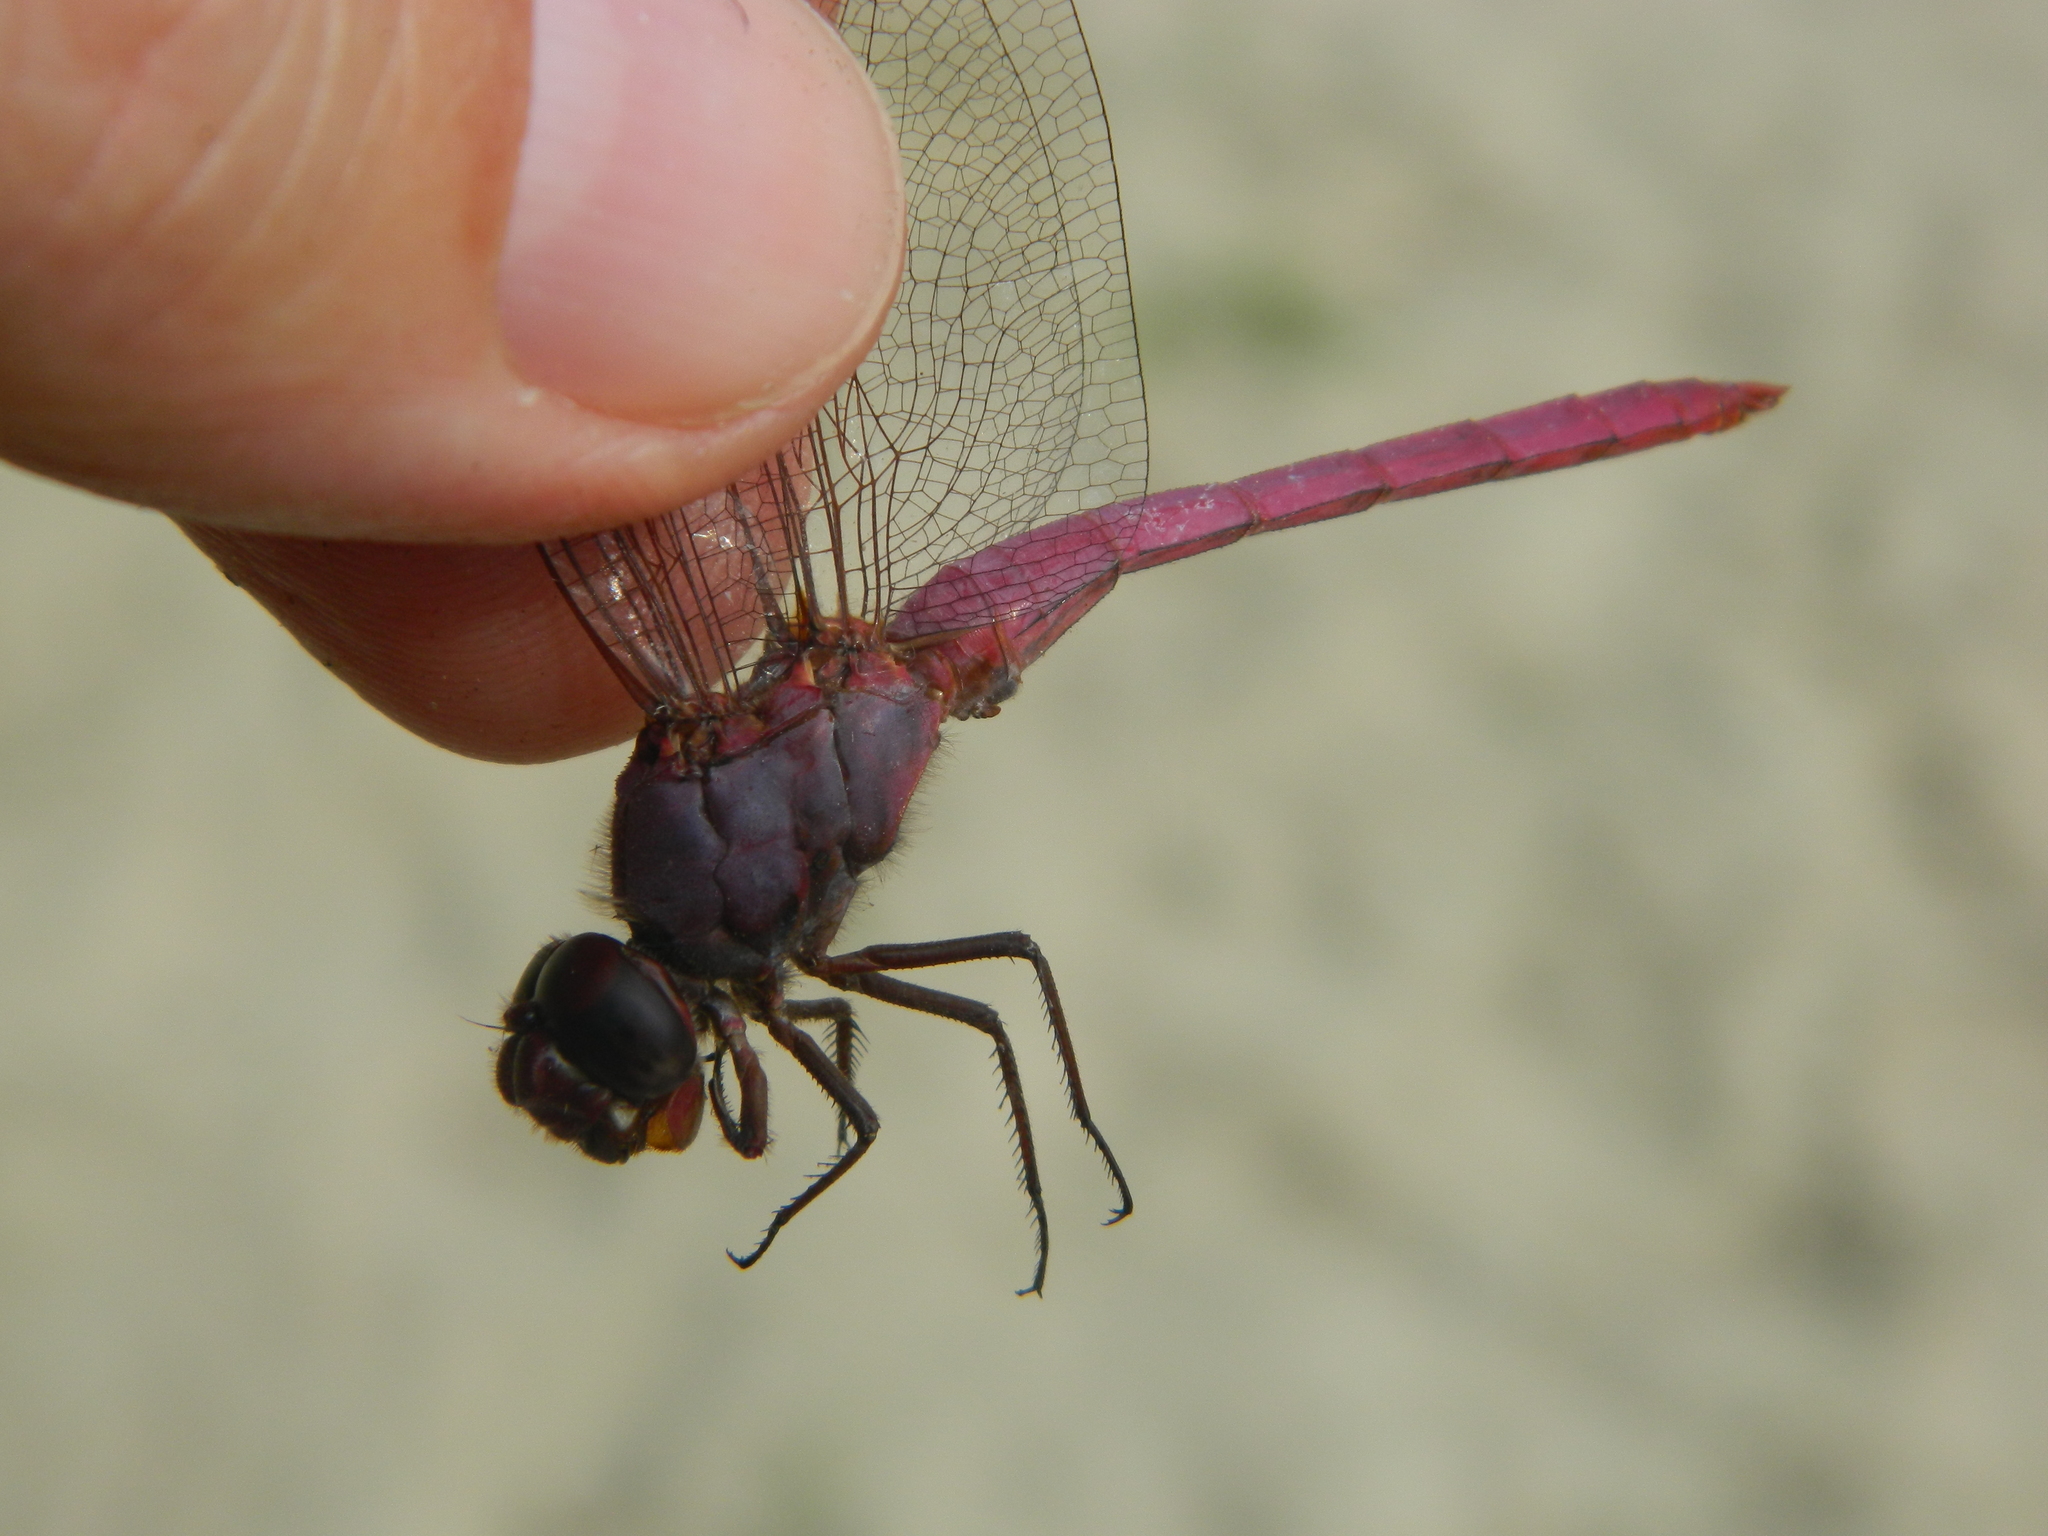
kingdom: Animalia
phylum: Arthropoda
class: Insecta
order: Odonata
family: Libellulidae
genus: Orthemis
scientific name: Orthemis ferruginea
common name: Roseate skimmer
